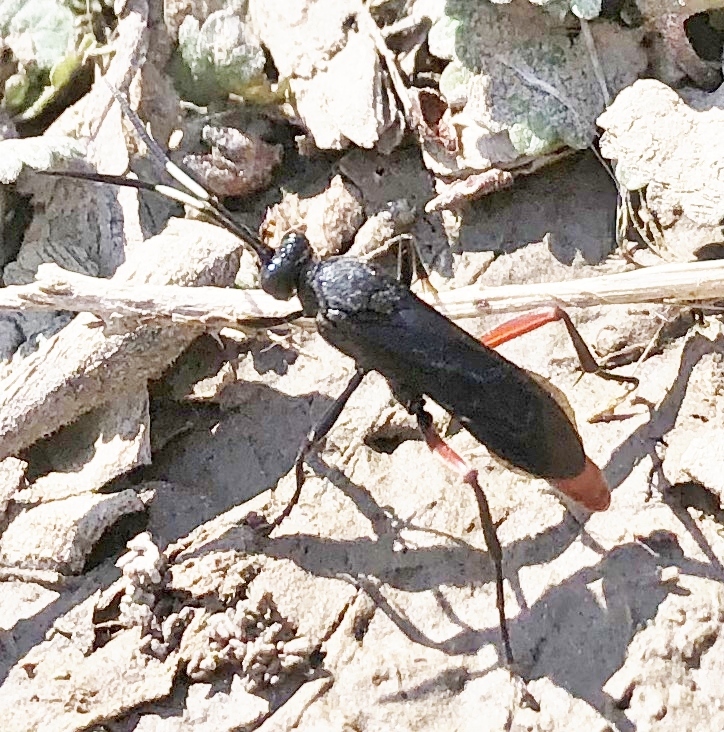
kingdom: Animalia
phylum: Arthropoda
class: Insecta
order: Hymenoptera
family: Ichneumonidae
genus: Limonethe
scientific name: Limonethe maurator
